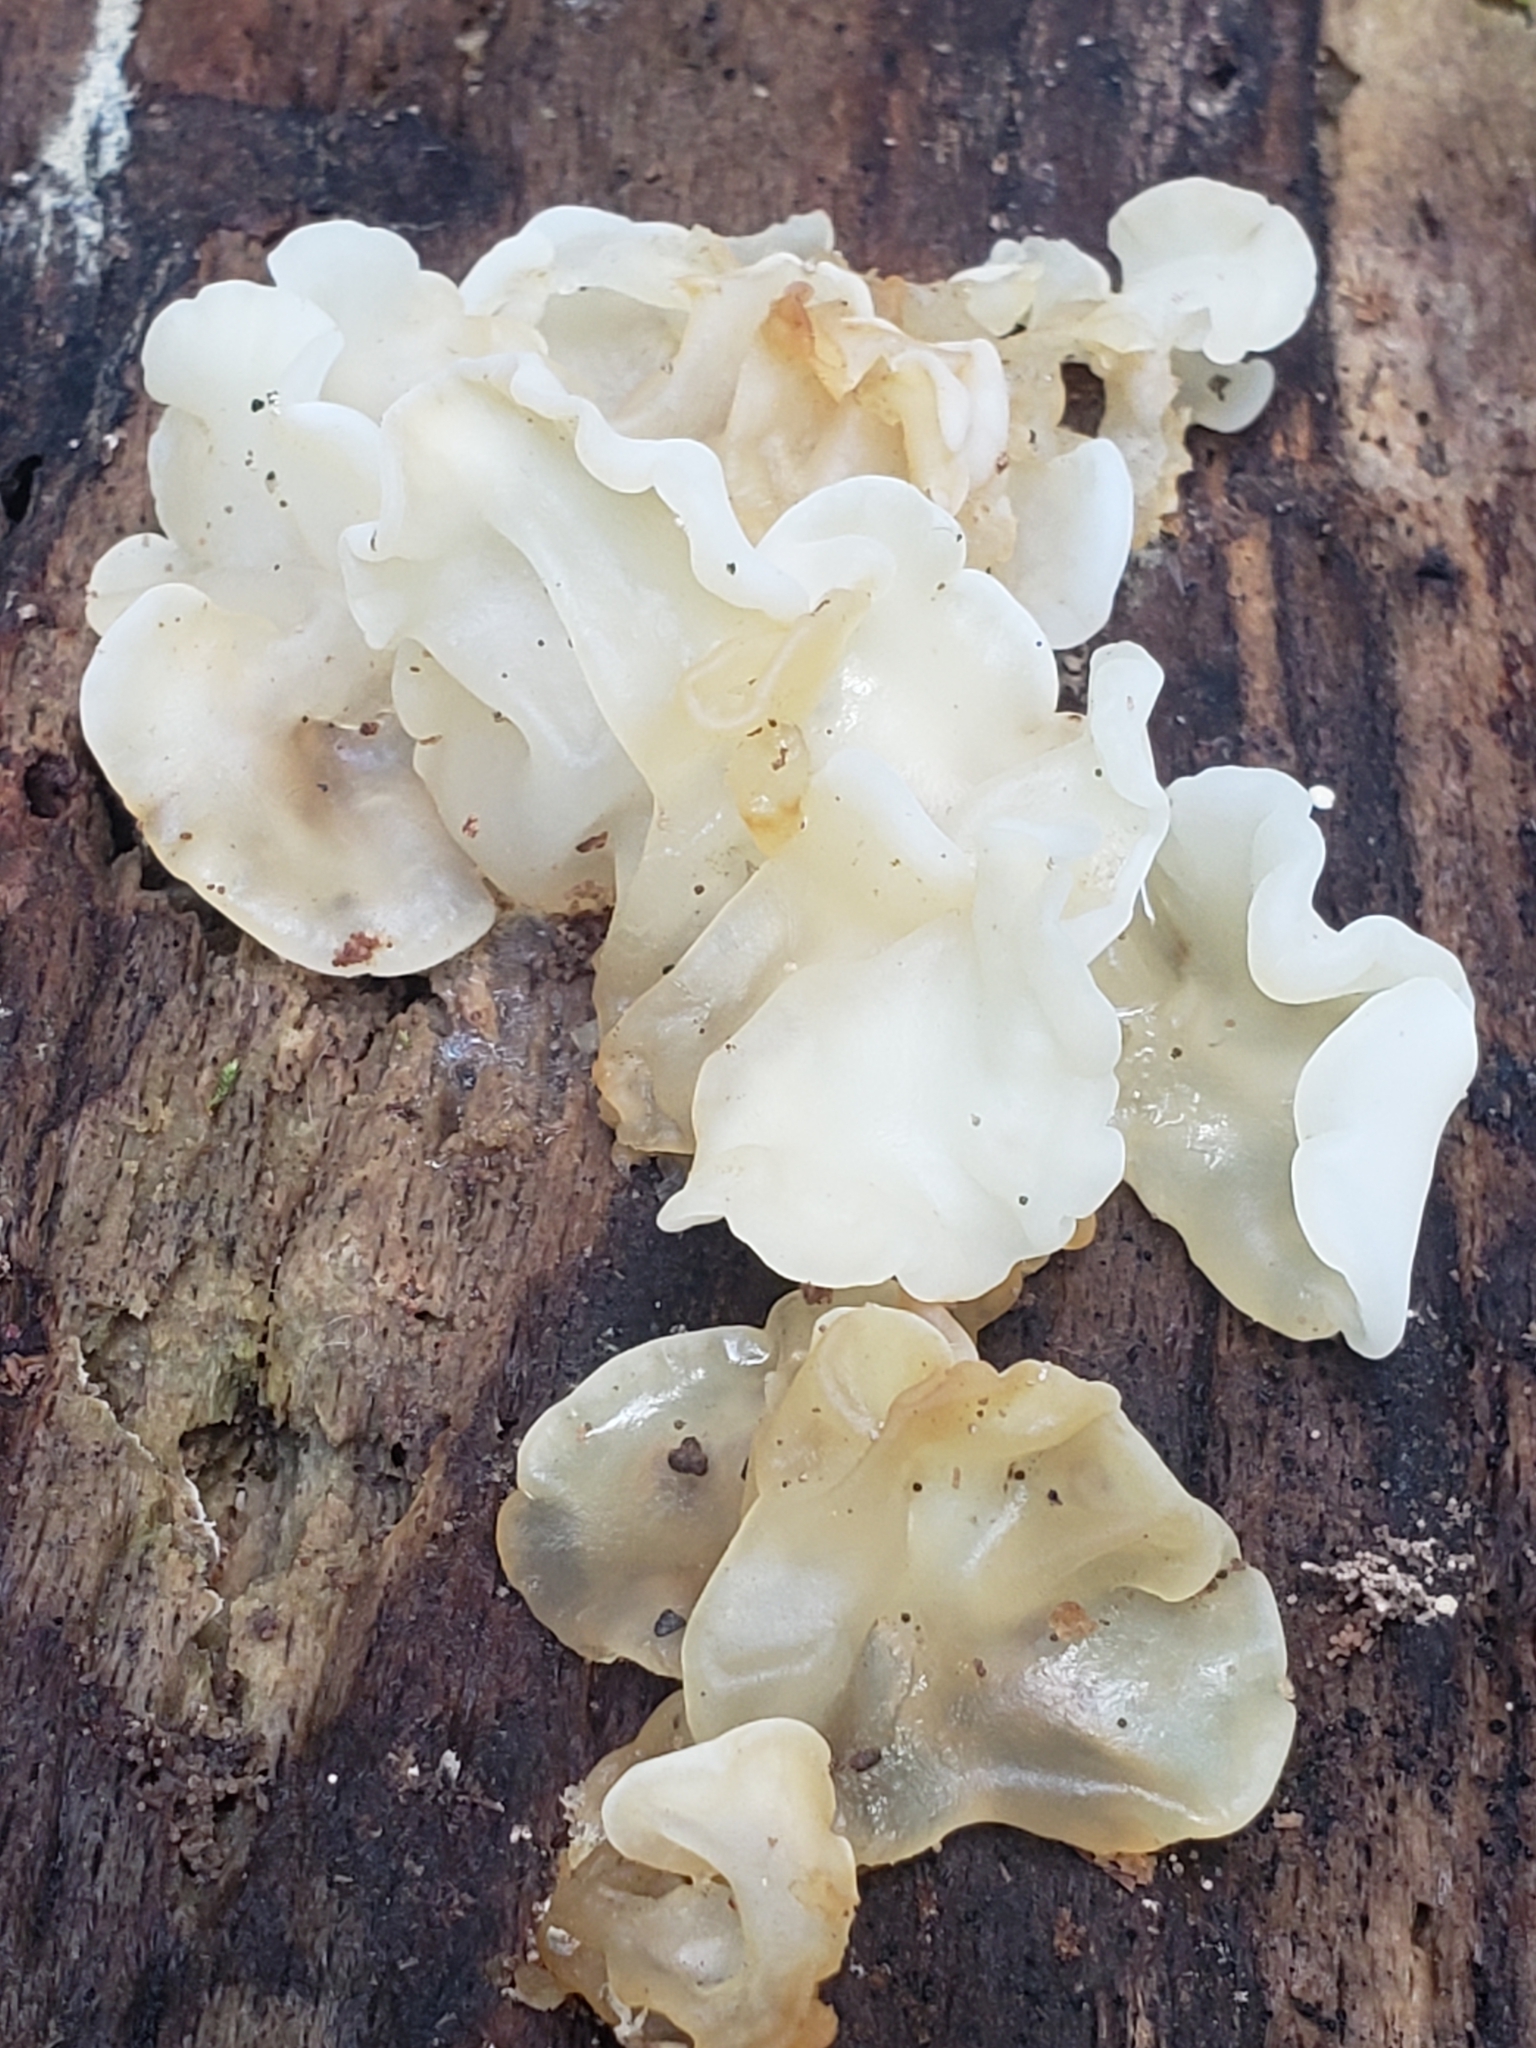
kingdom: Fungi
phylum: Basidiomycota
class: Agaricomycetes
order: Auriculariales
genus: Ductifera
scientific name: Ductifera pululahuana
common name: White jelly fungus
